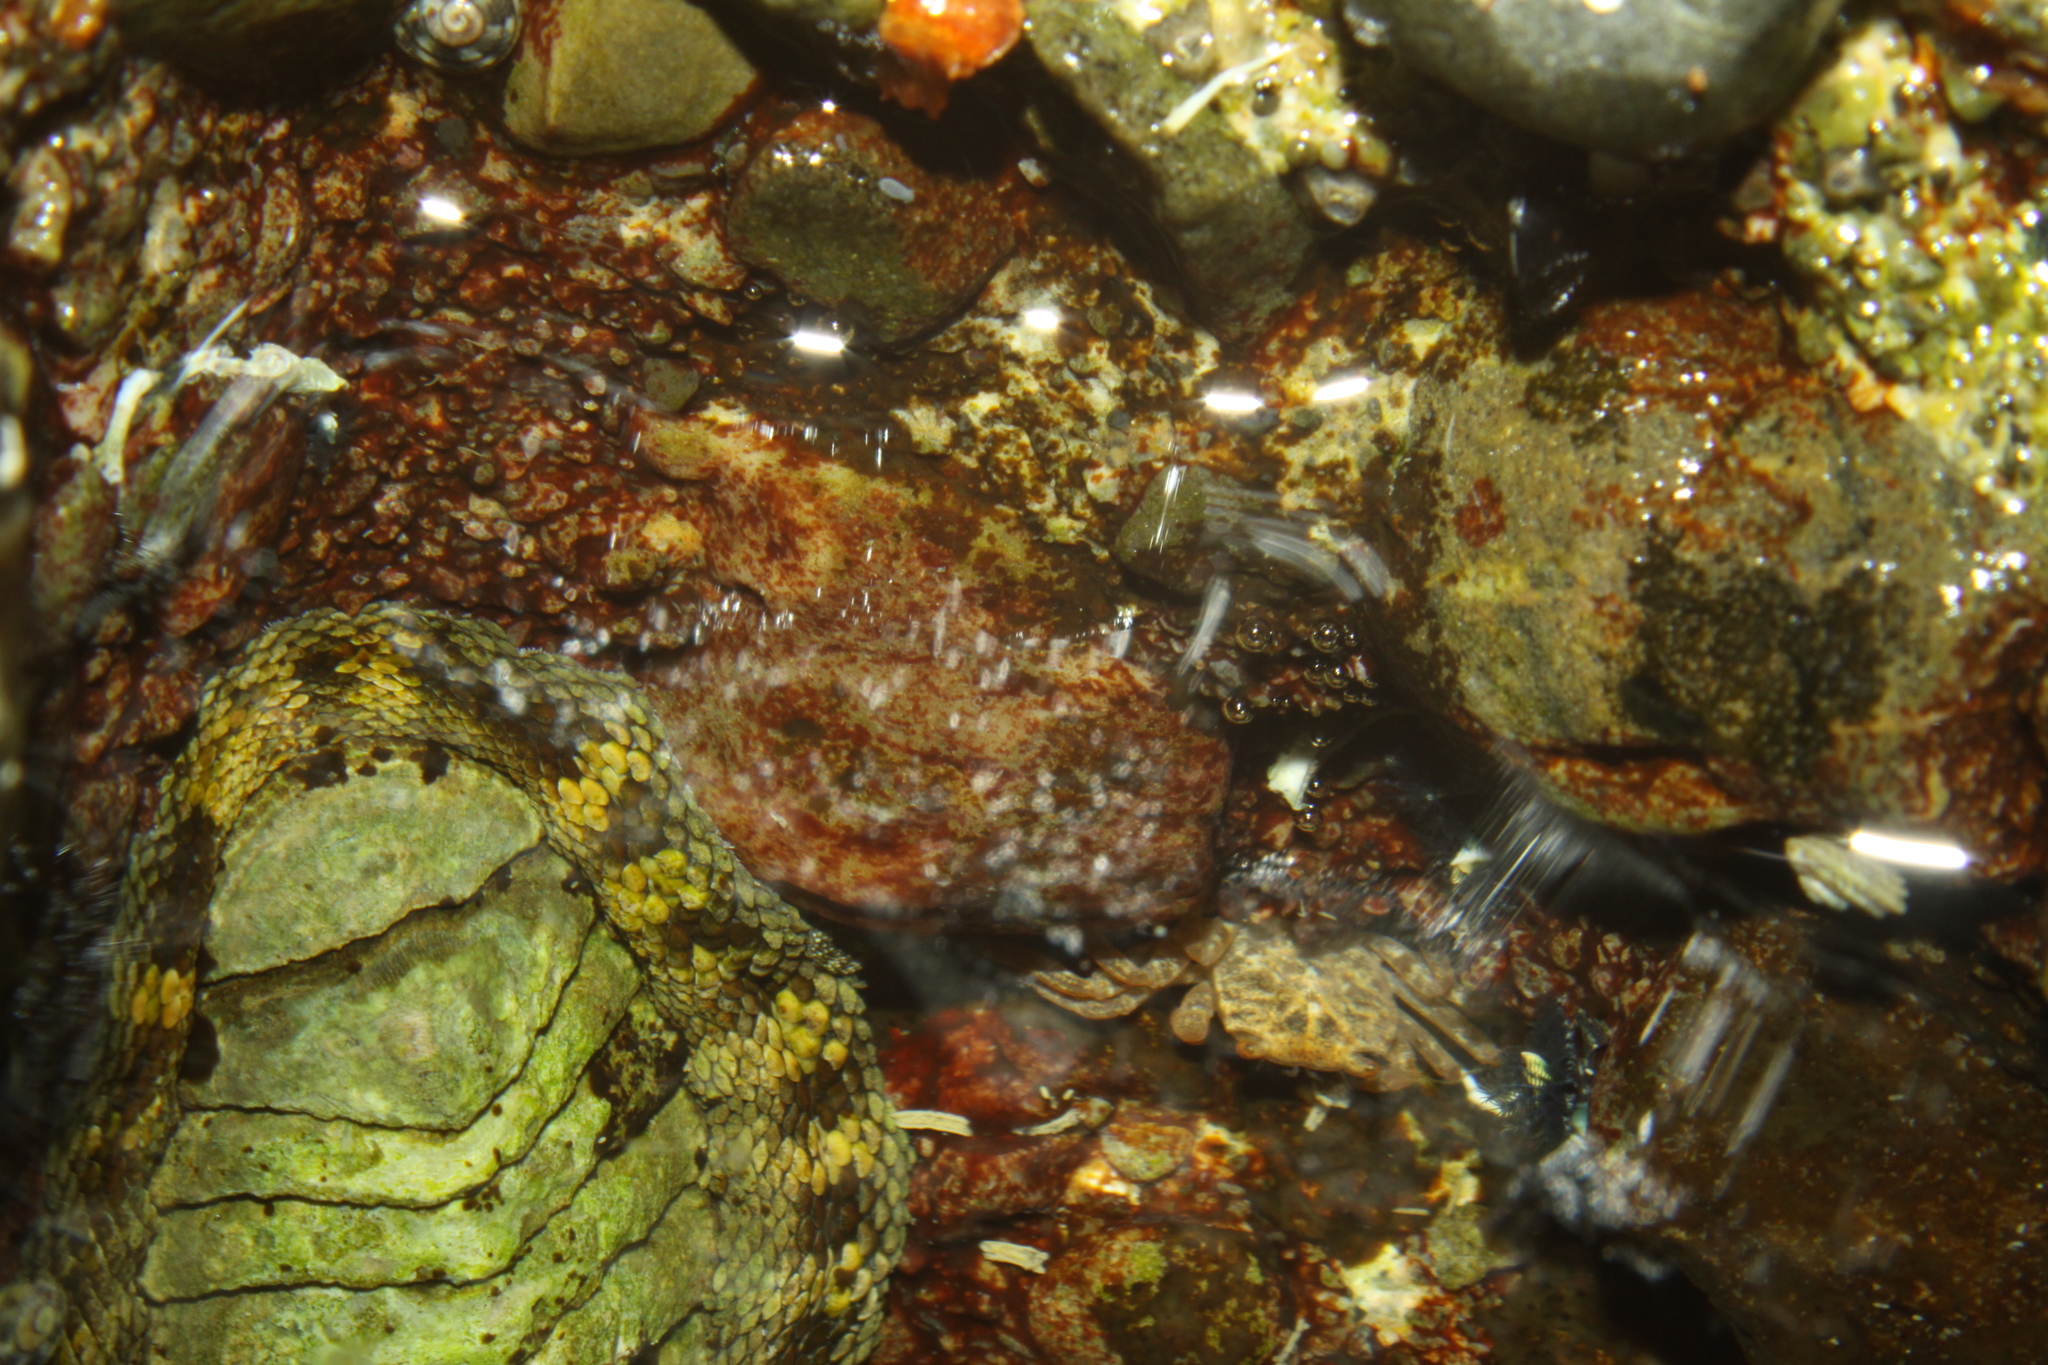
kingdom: Animalia
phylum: Mollusca
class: Polyplacophora
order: Chitonida
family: Chitonidae
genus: Sypharochiton
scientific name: Sypharochiton pelliserpentis
